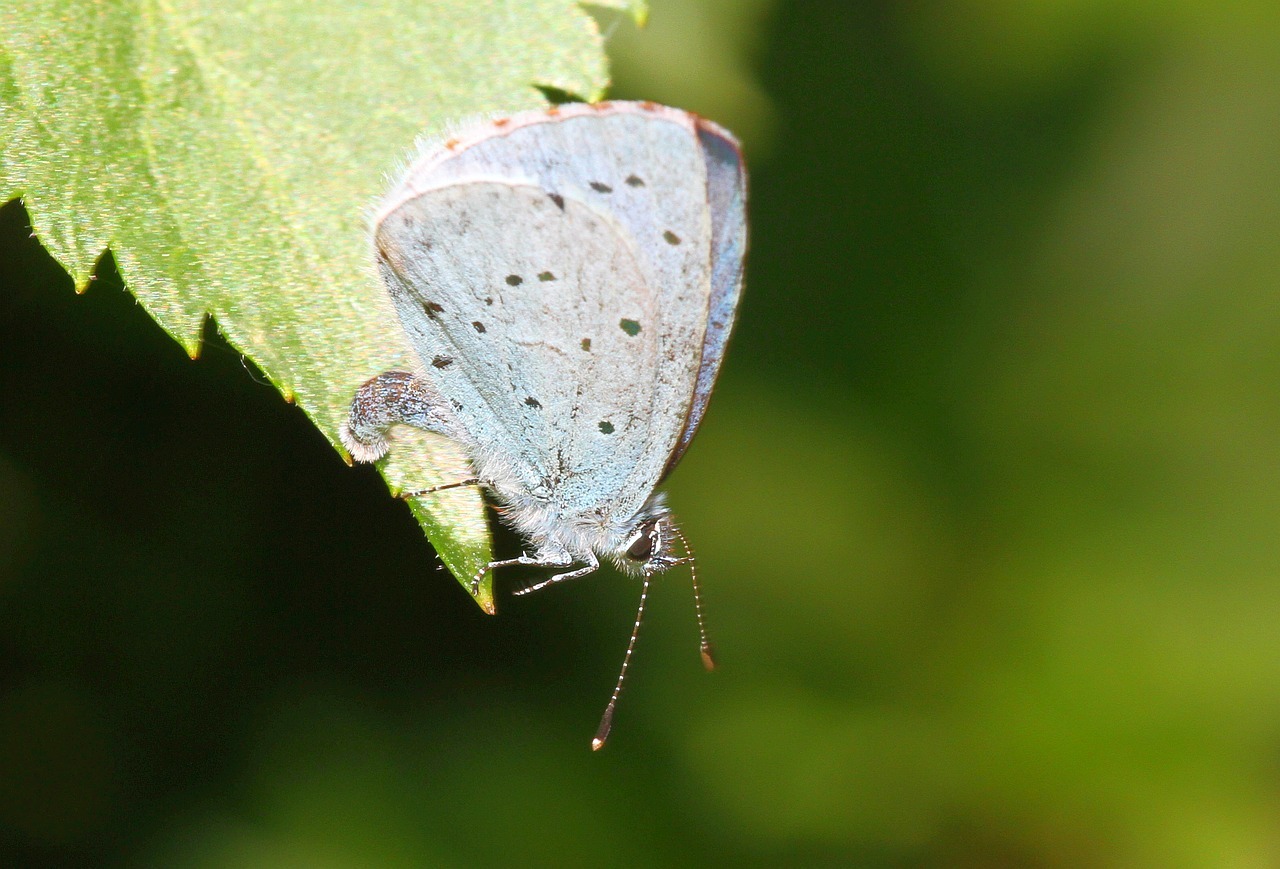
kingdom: Animalia
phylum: Arthropoda
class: Insecta
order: Lepidoptera
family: Lycaenidae
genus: Celastrina
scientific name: Celastrina argiolus
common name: Holly blue
